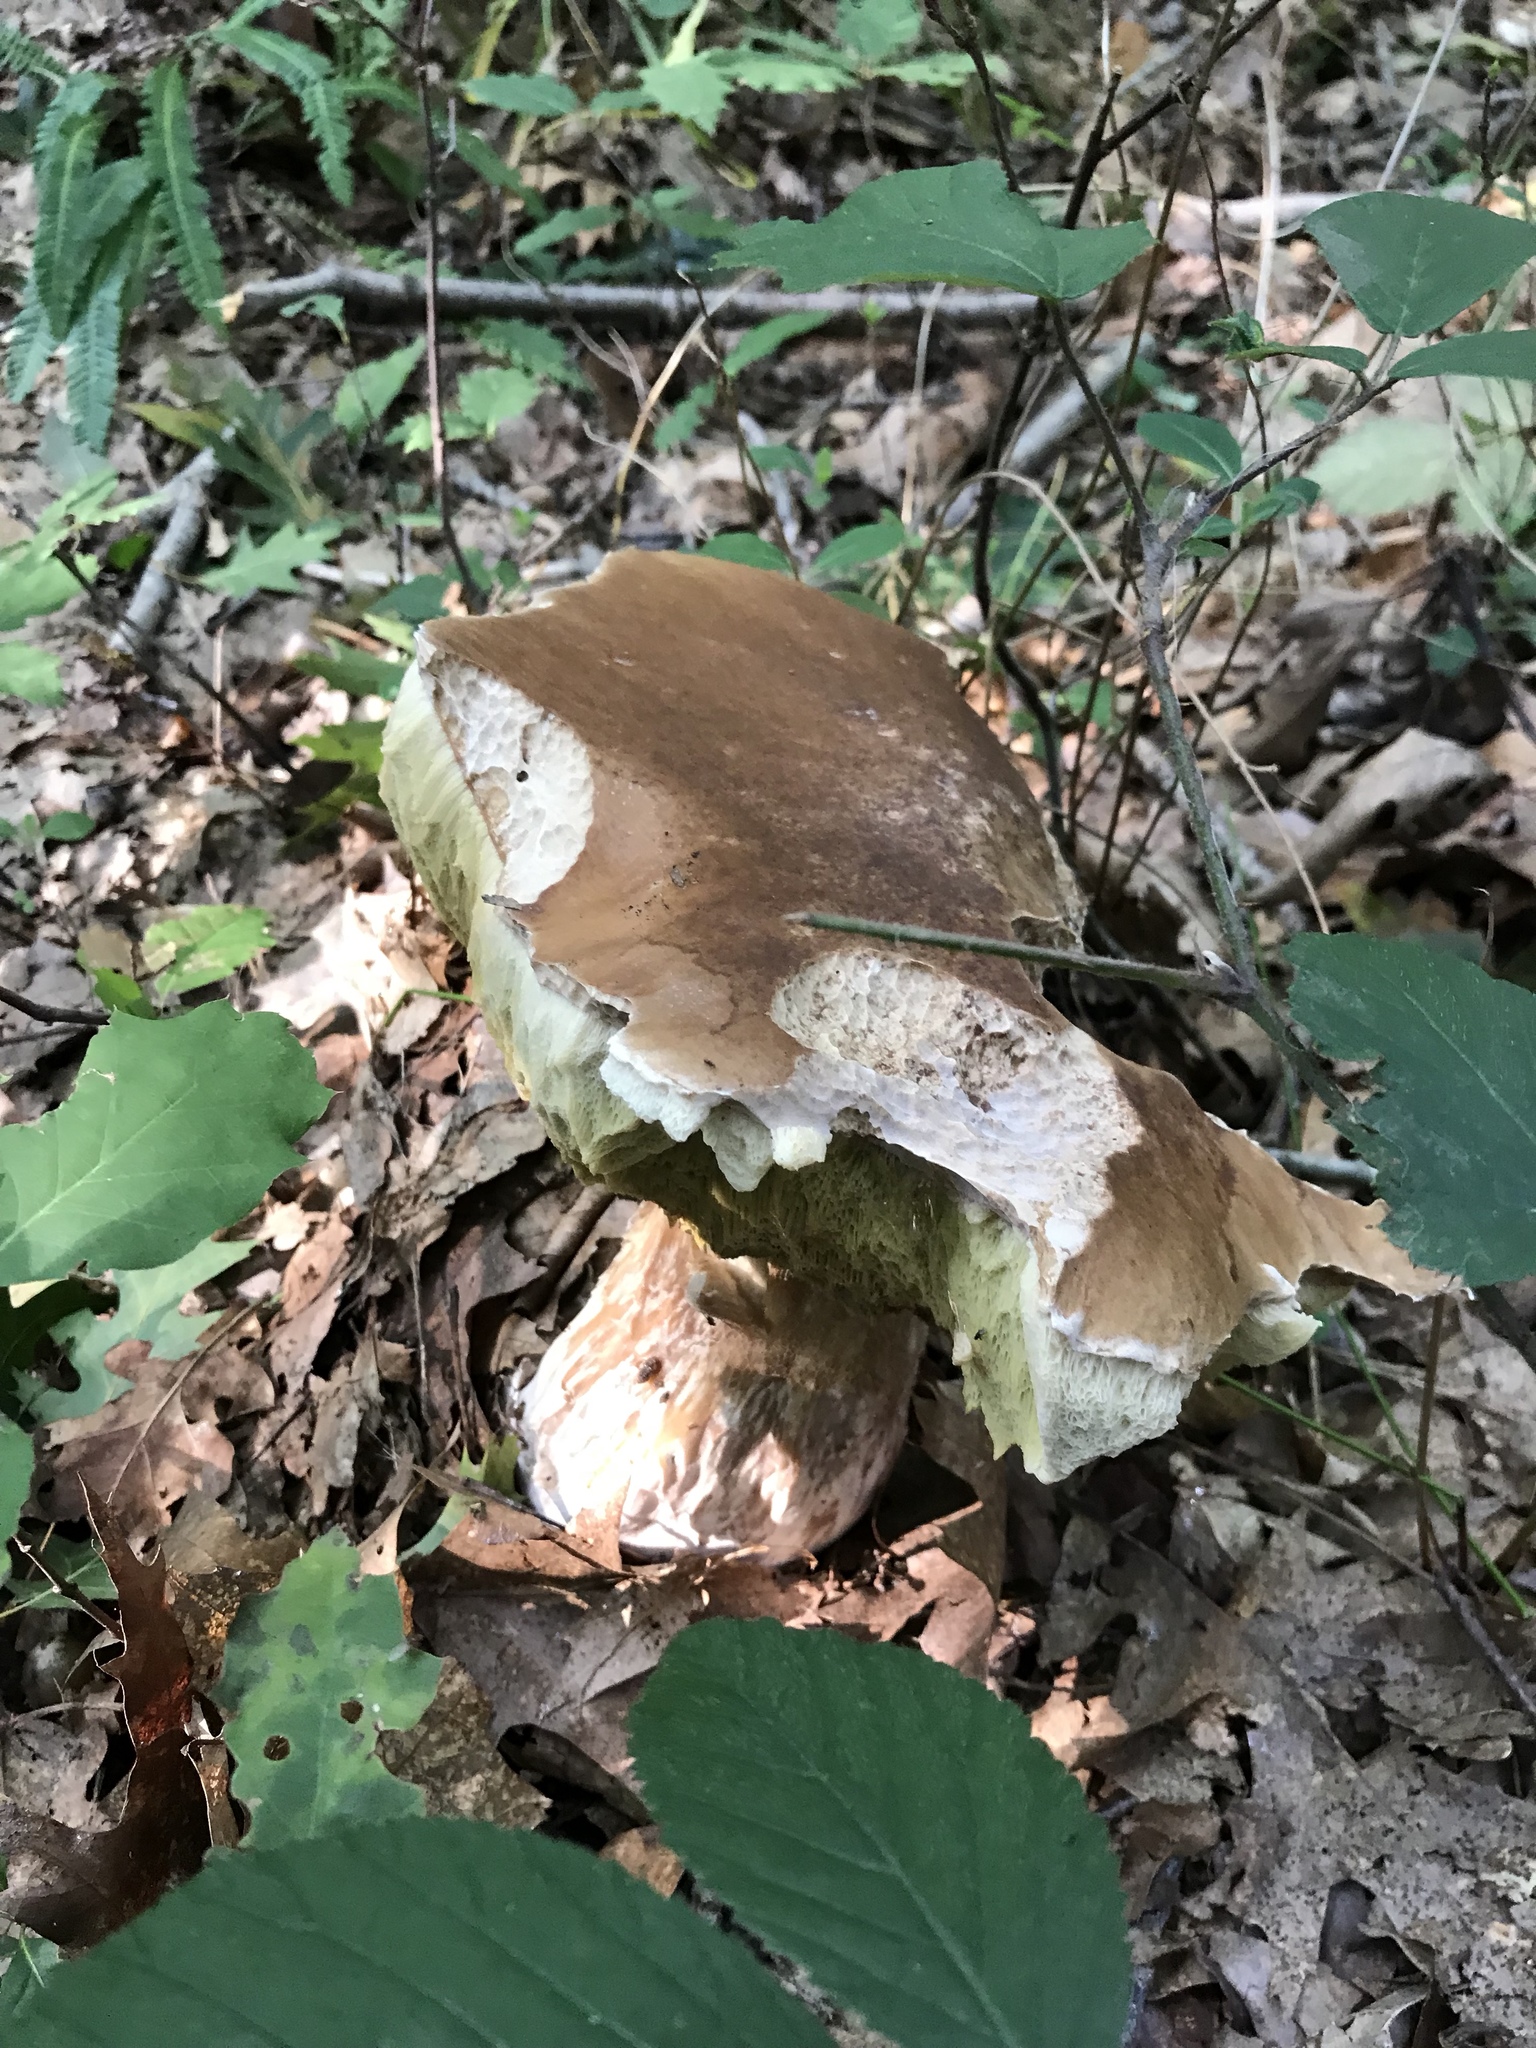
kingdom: Fungi
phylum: Basidiomycota
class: Agaricomycetes
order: Boletales
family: Boletaceae
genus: Boletus
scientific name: Boletus edulis
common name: Cep
